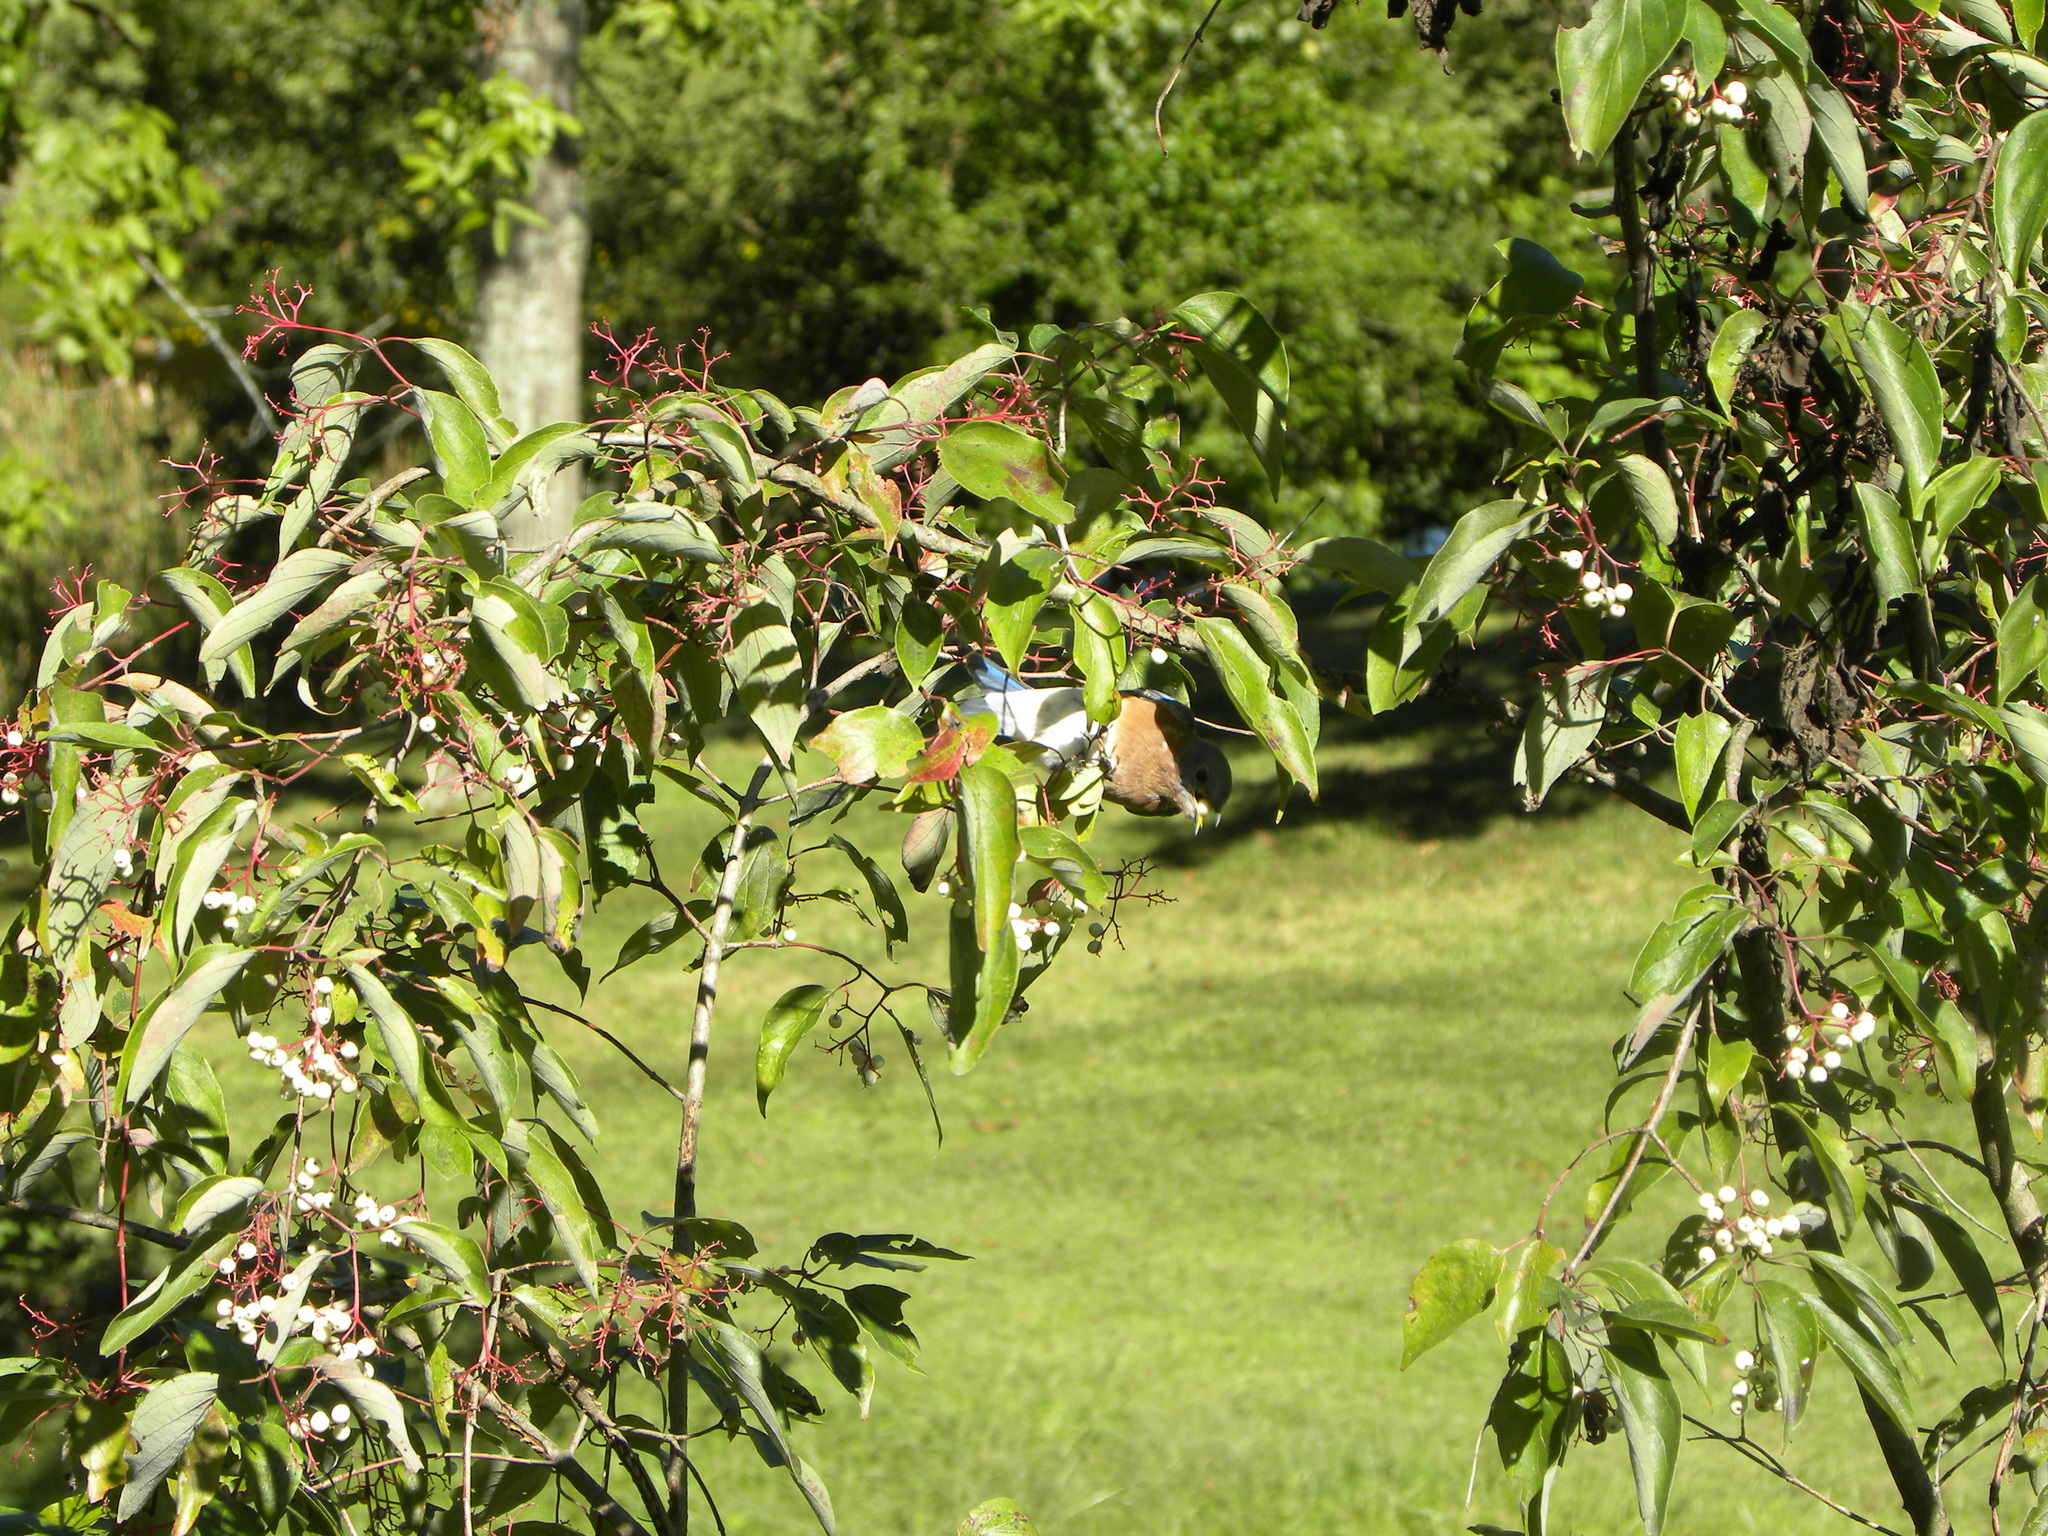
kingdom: Animalia
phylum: Chordata
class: Aves
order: Passeriformes
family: Turdidae
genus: Sialia
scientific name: Sialia sialis
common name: Eastern bluebird
